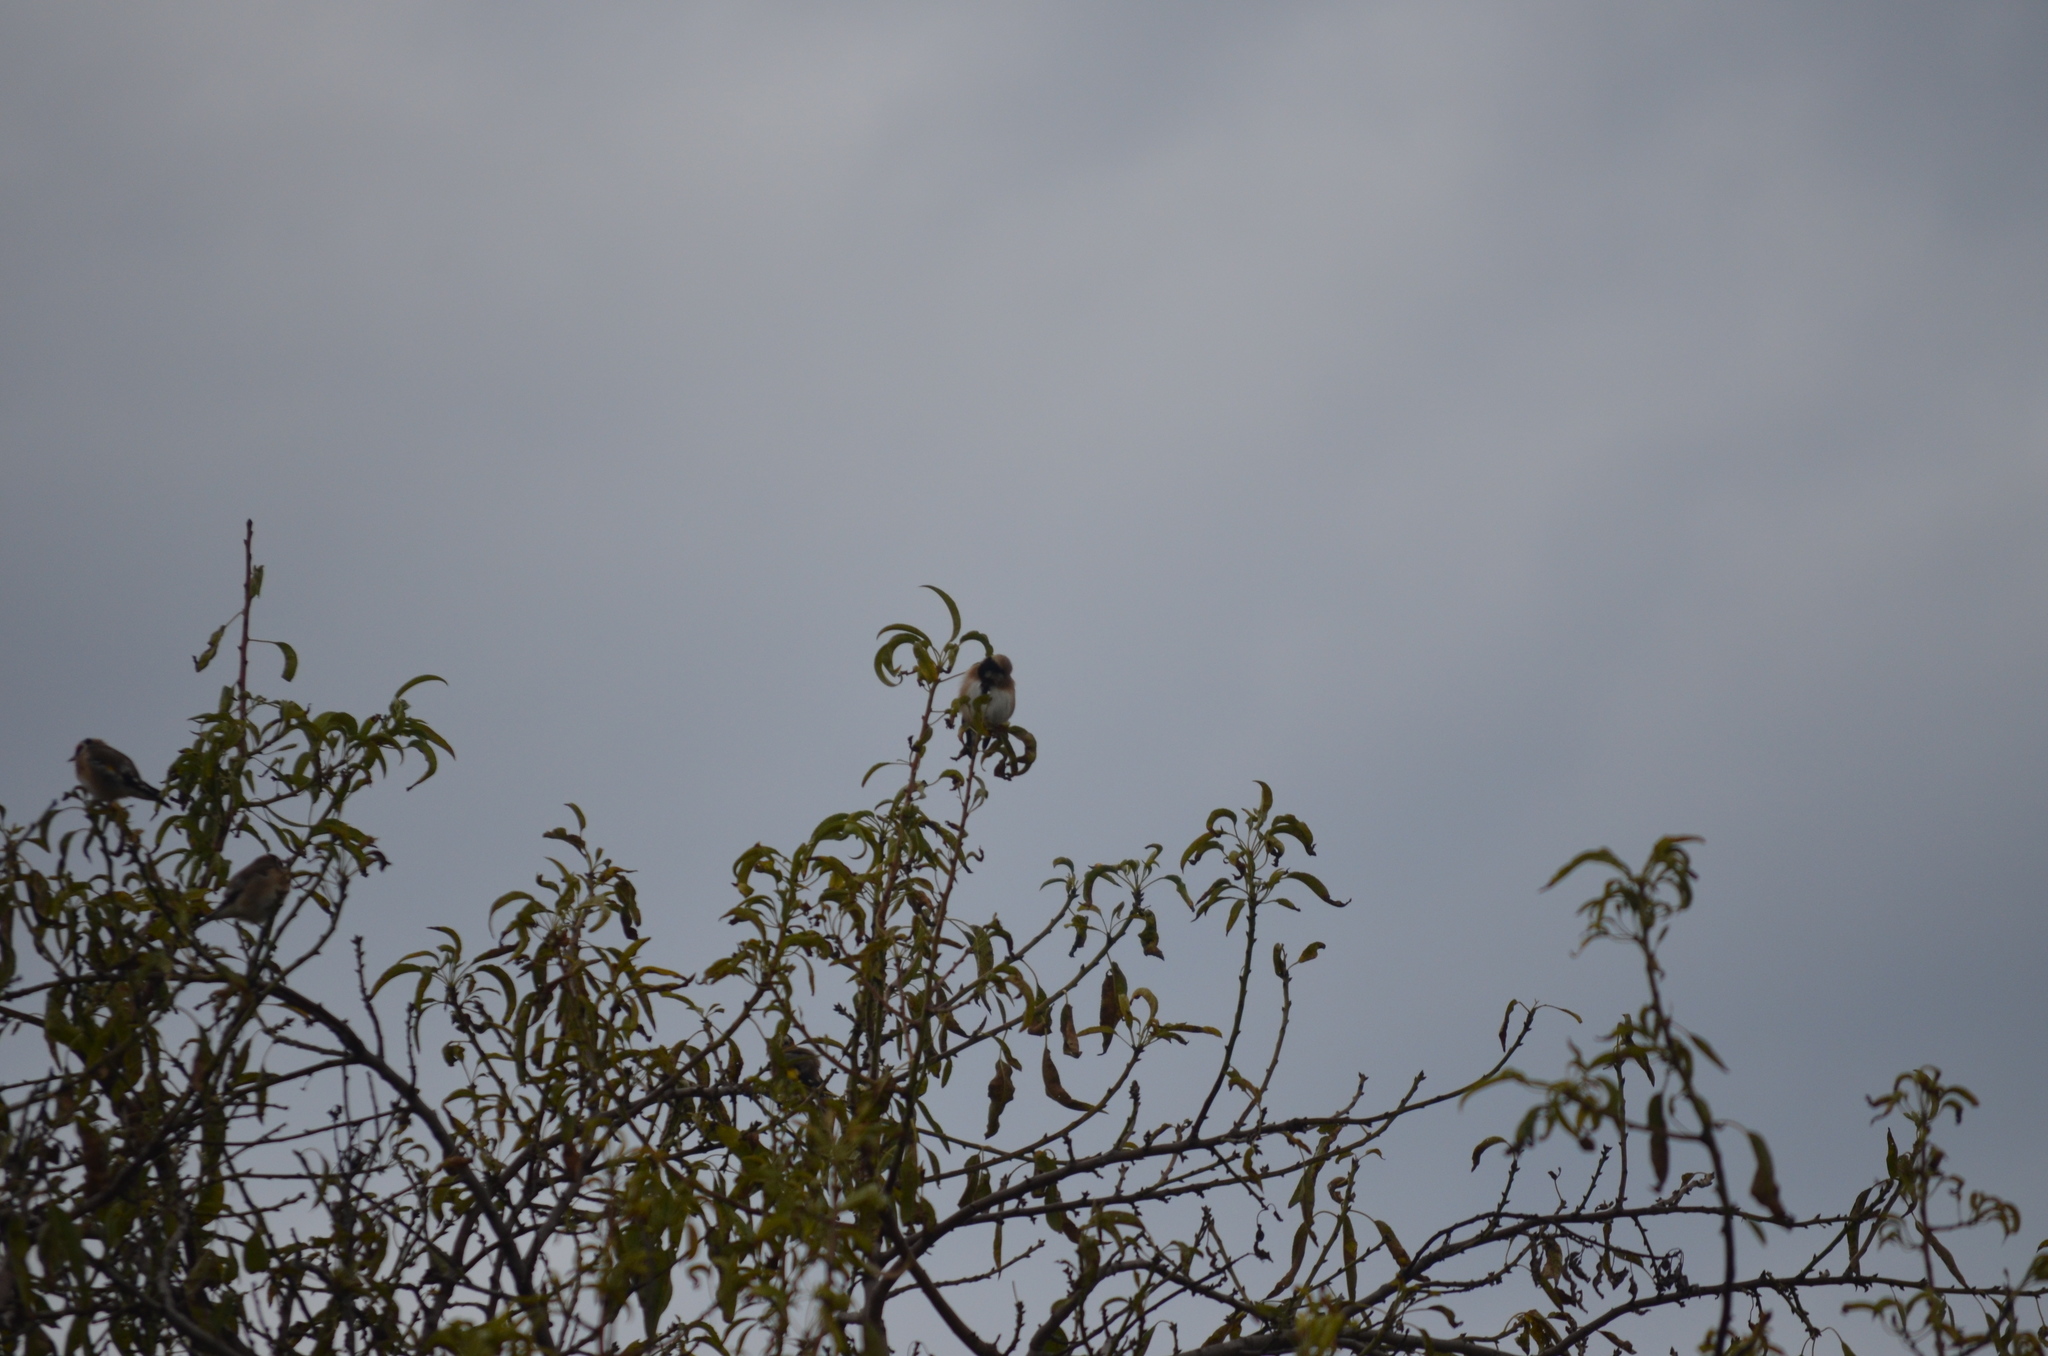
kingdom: Animalia
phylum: Chordata
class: Aves
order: Passeriformes
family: Fringillidae
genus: Carduelis
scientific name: Carduelis carduelis
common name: European goldfinch
